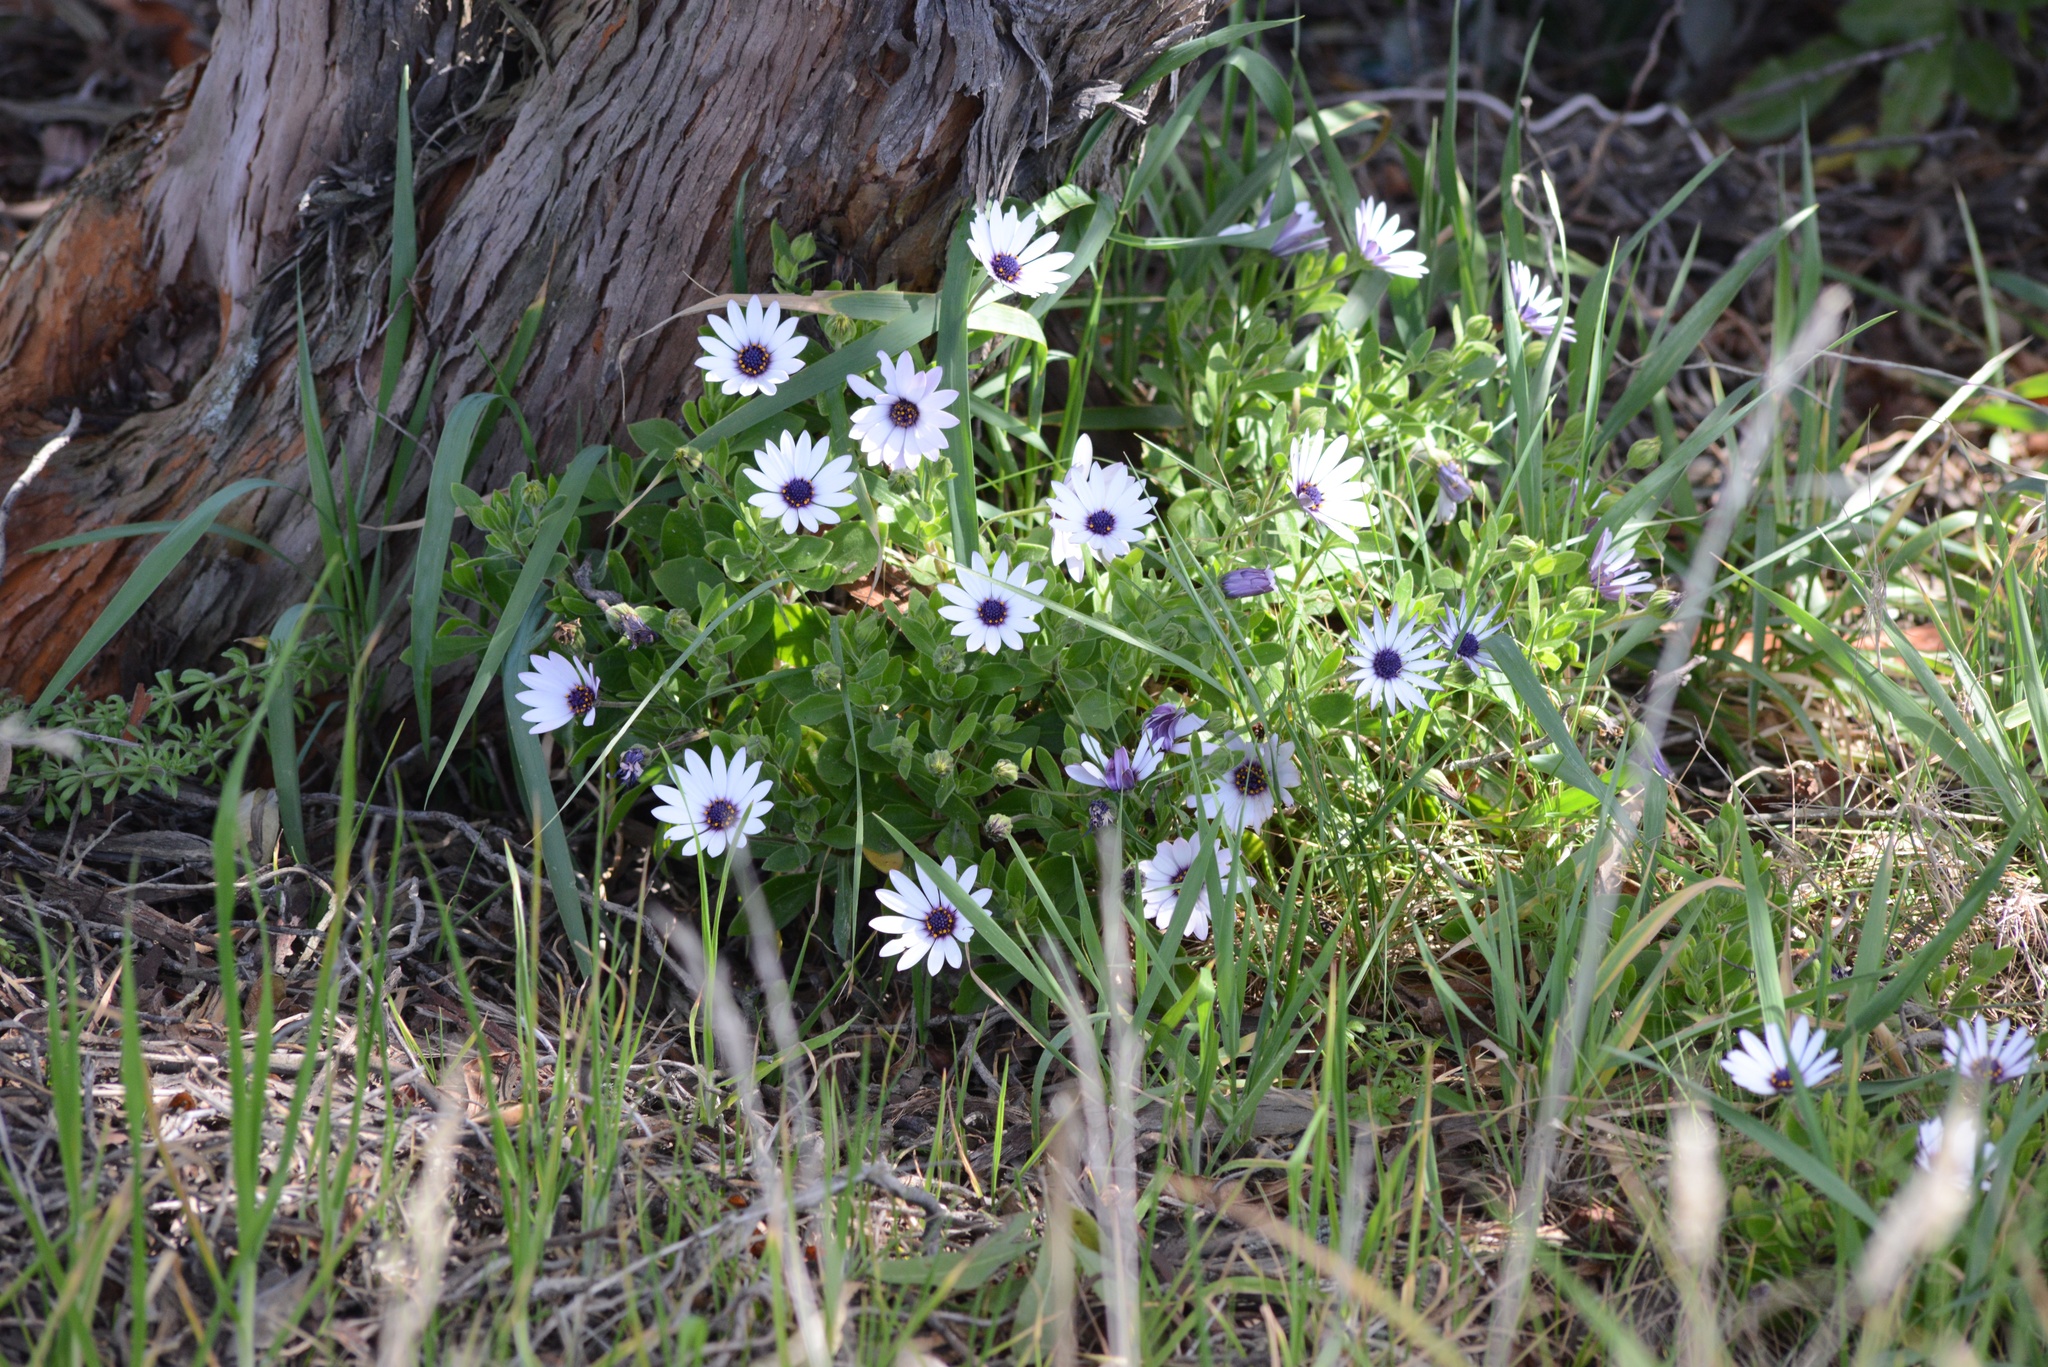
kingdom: Plantae
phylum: Tracheophyta
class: Magnoliopsida
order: Asterales
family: Asteraceae
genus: Dimorphotheca
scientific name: Dimorphotheca fruticosa
